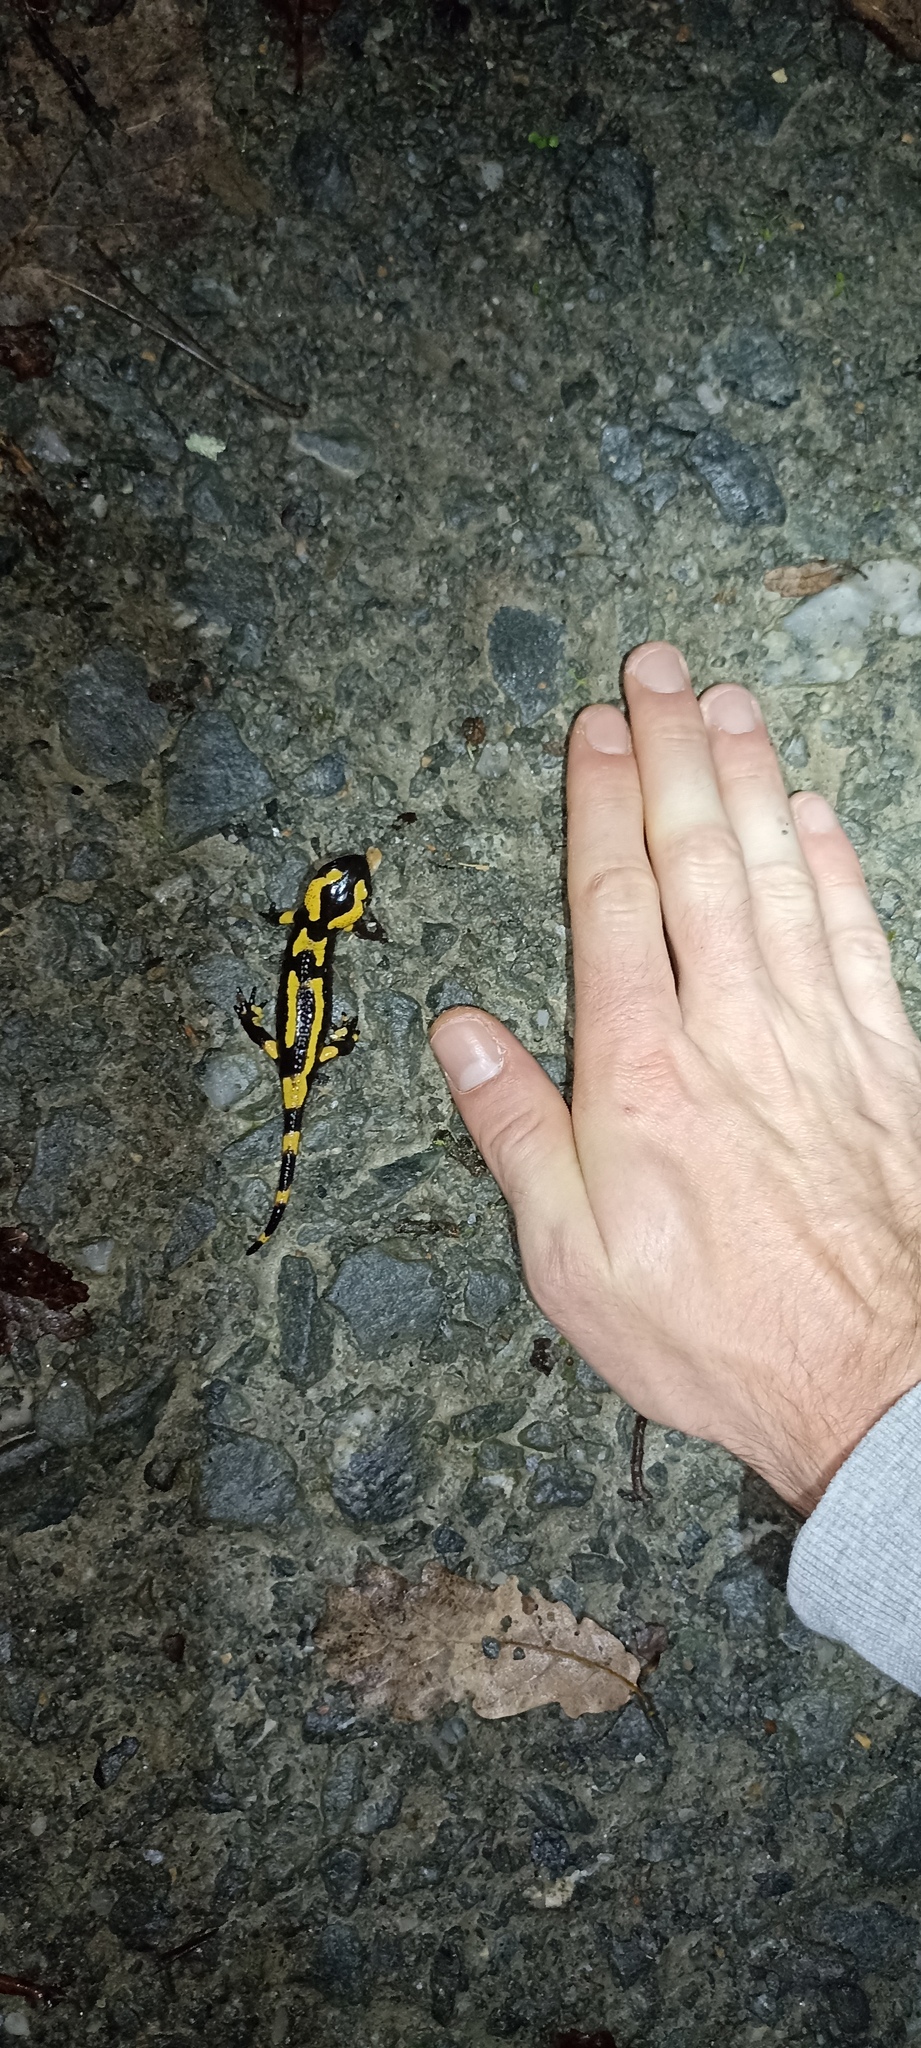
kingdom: Animalia
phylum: Chordata
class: Amphibia
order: Caudata
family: Salamandridae
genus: Salamandra
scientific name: Salamandra salamandra
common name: Fire salamander
